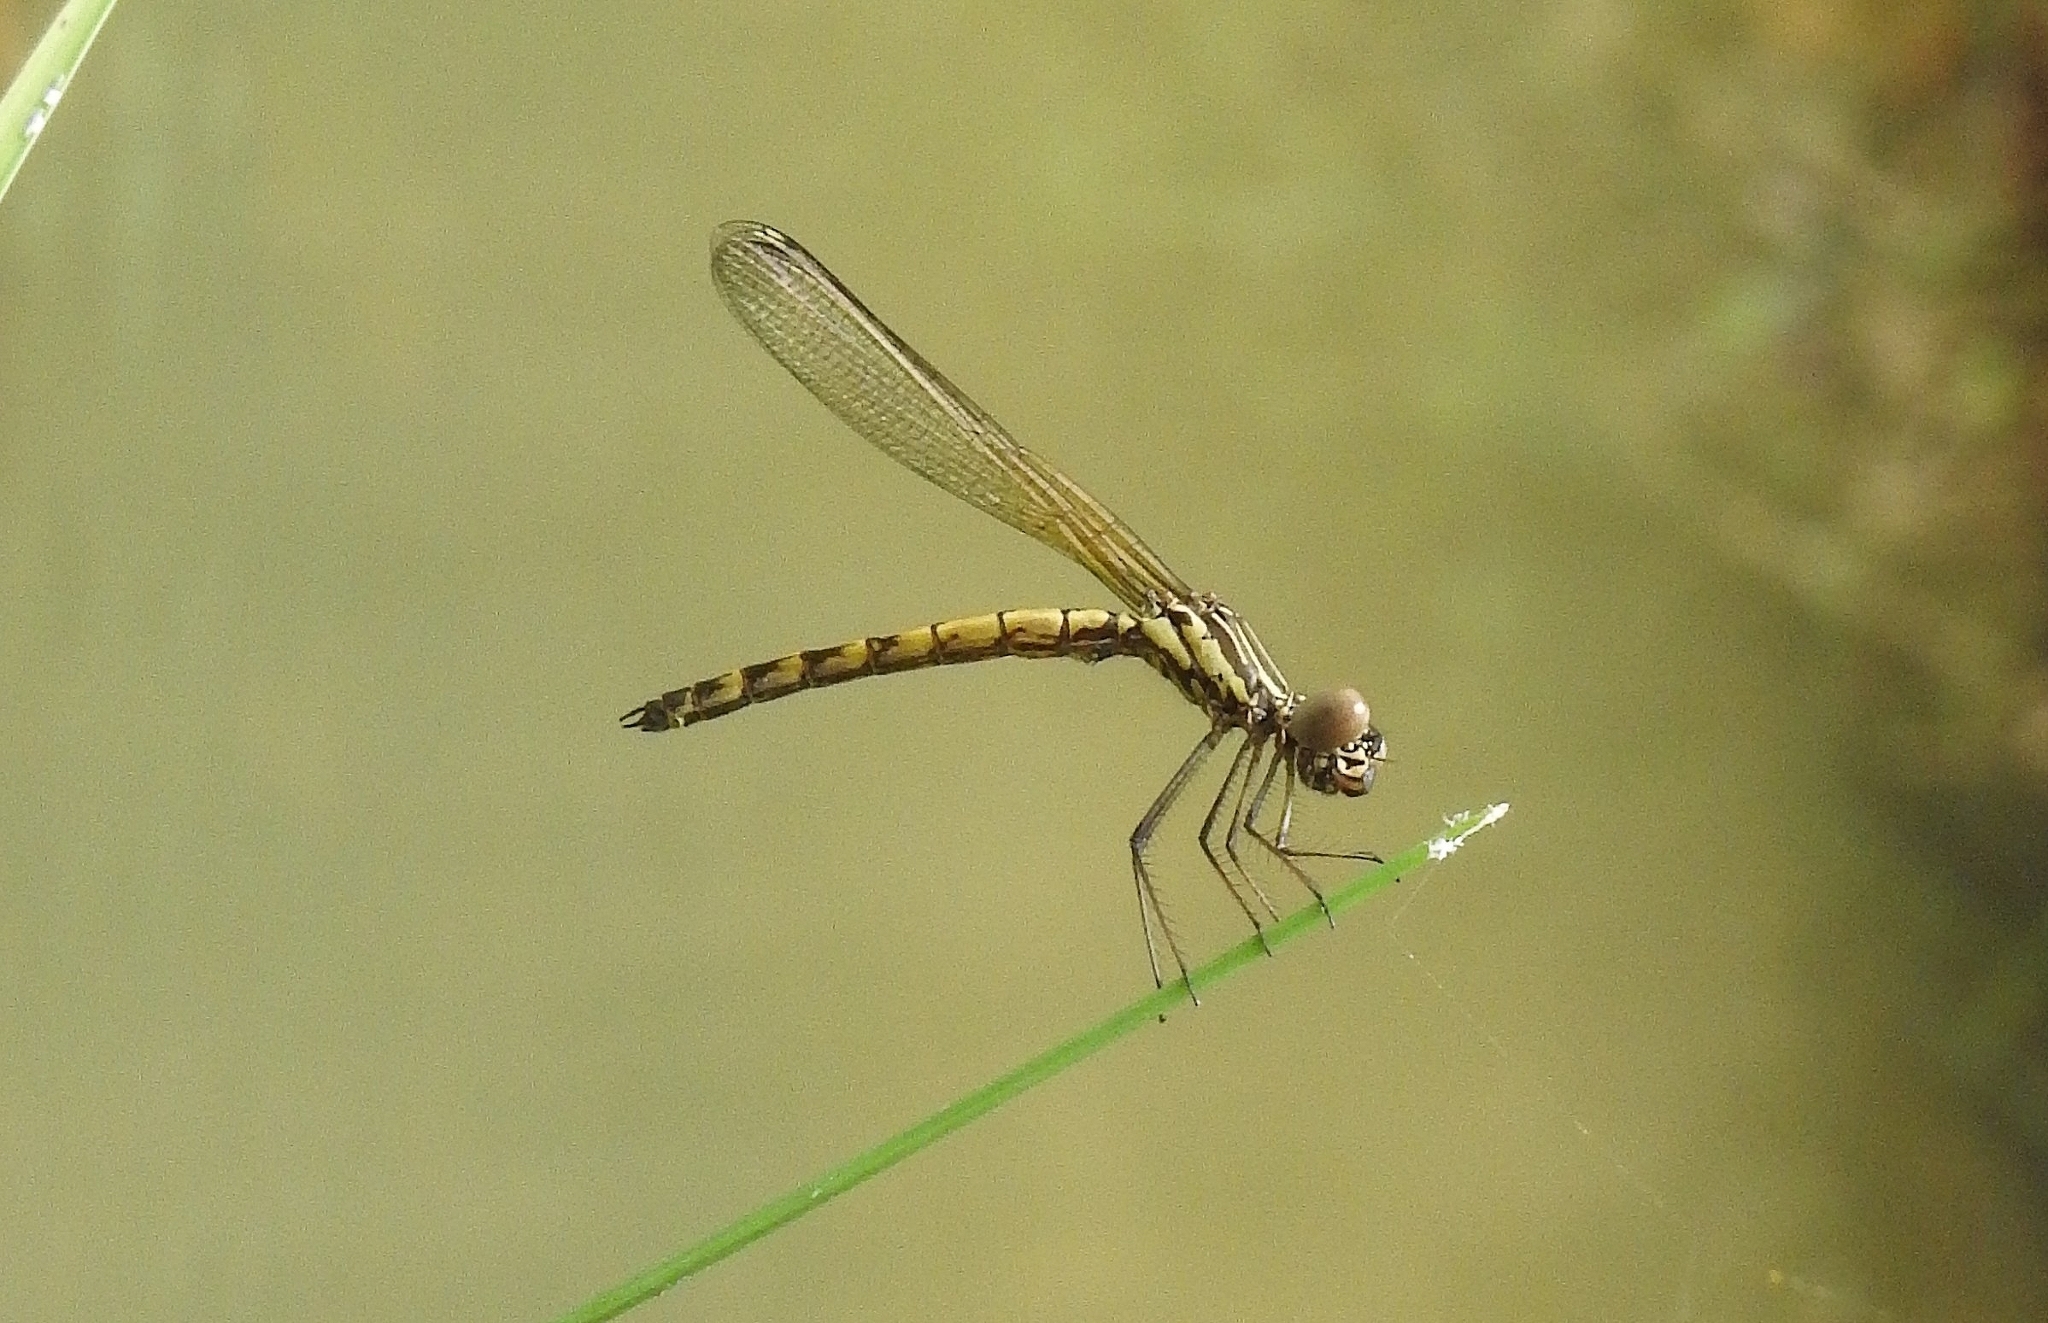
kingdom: Animalia
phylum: Arthropoda
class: Insecta
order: Odonata
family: Chlorocyphidae
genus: Libellago
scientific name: Libellago indica
